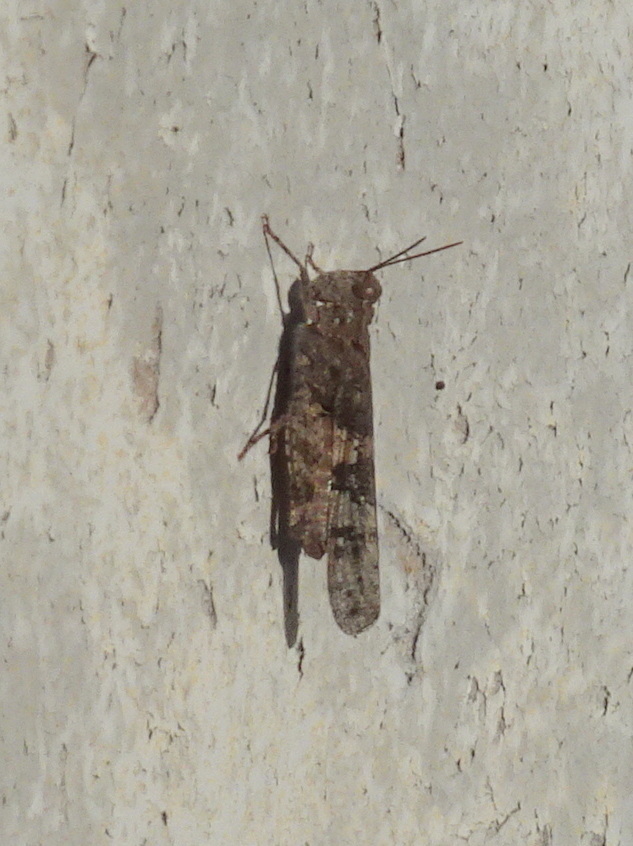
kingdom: Animalia
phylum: Arthropoda
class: Insecta
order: Orthoptera
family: Acrididae
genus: Trimerotropis
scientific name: Trimerotropis pallidipennis
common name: Pallid-winged grasshopper
